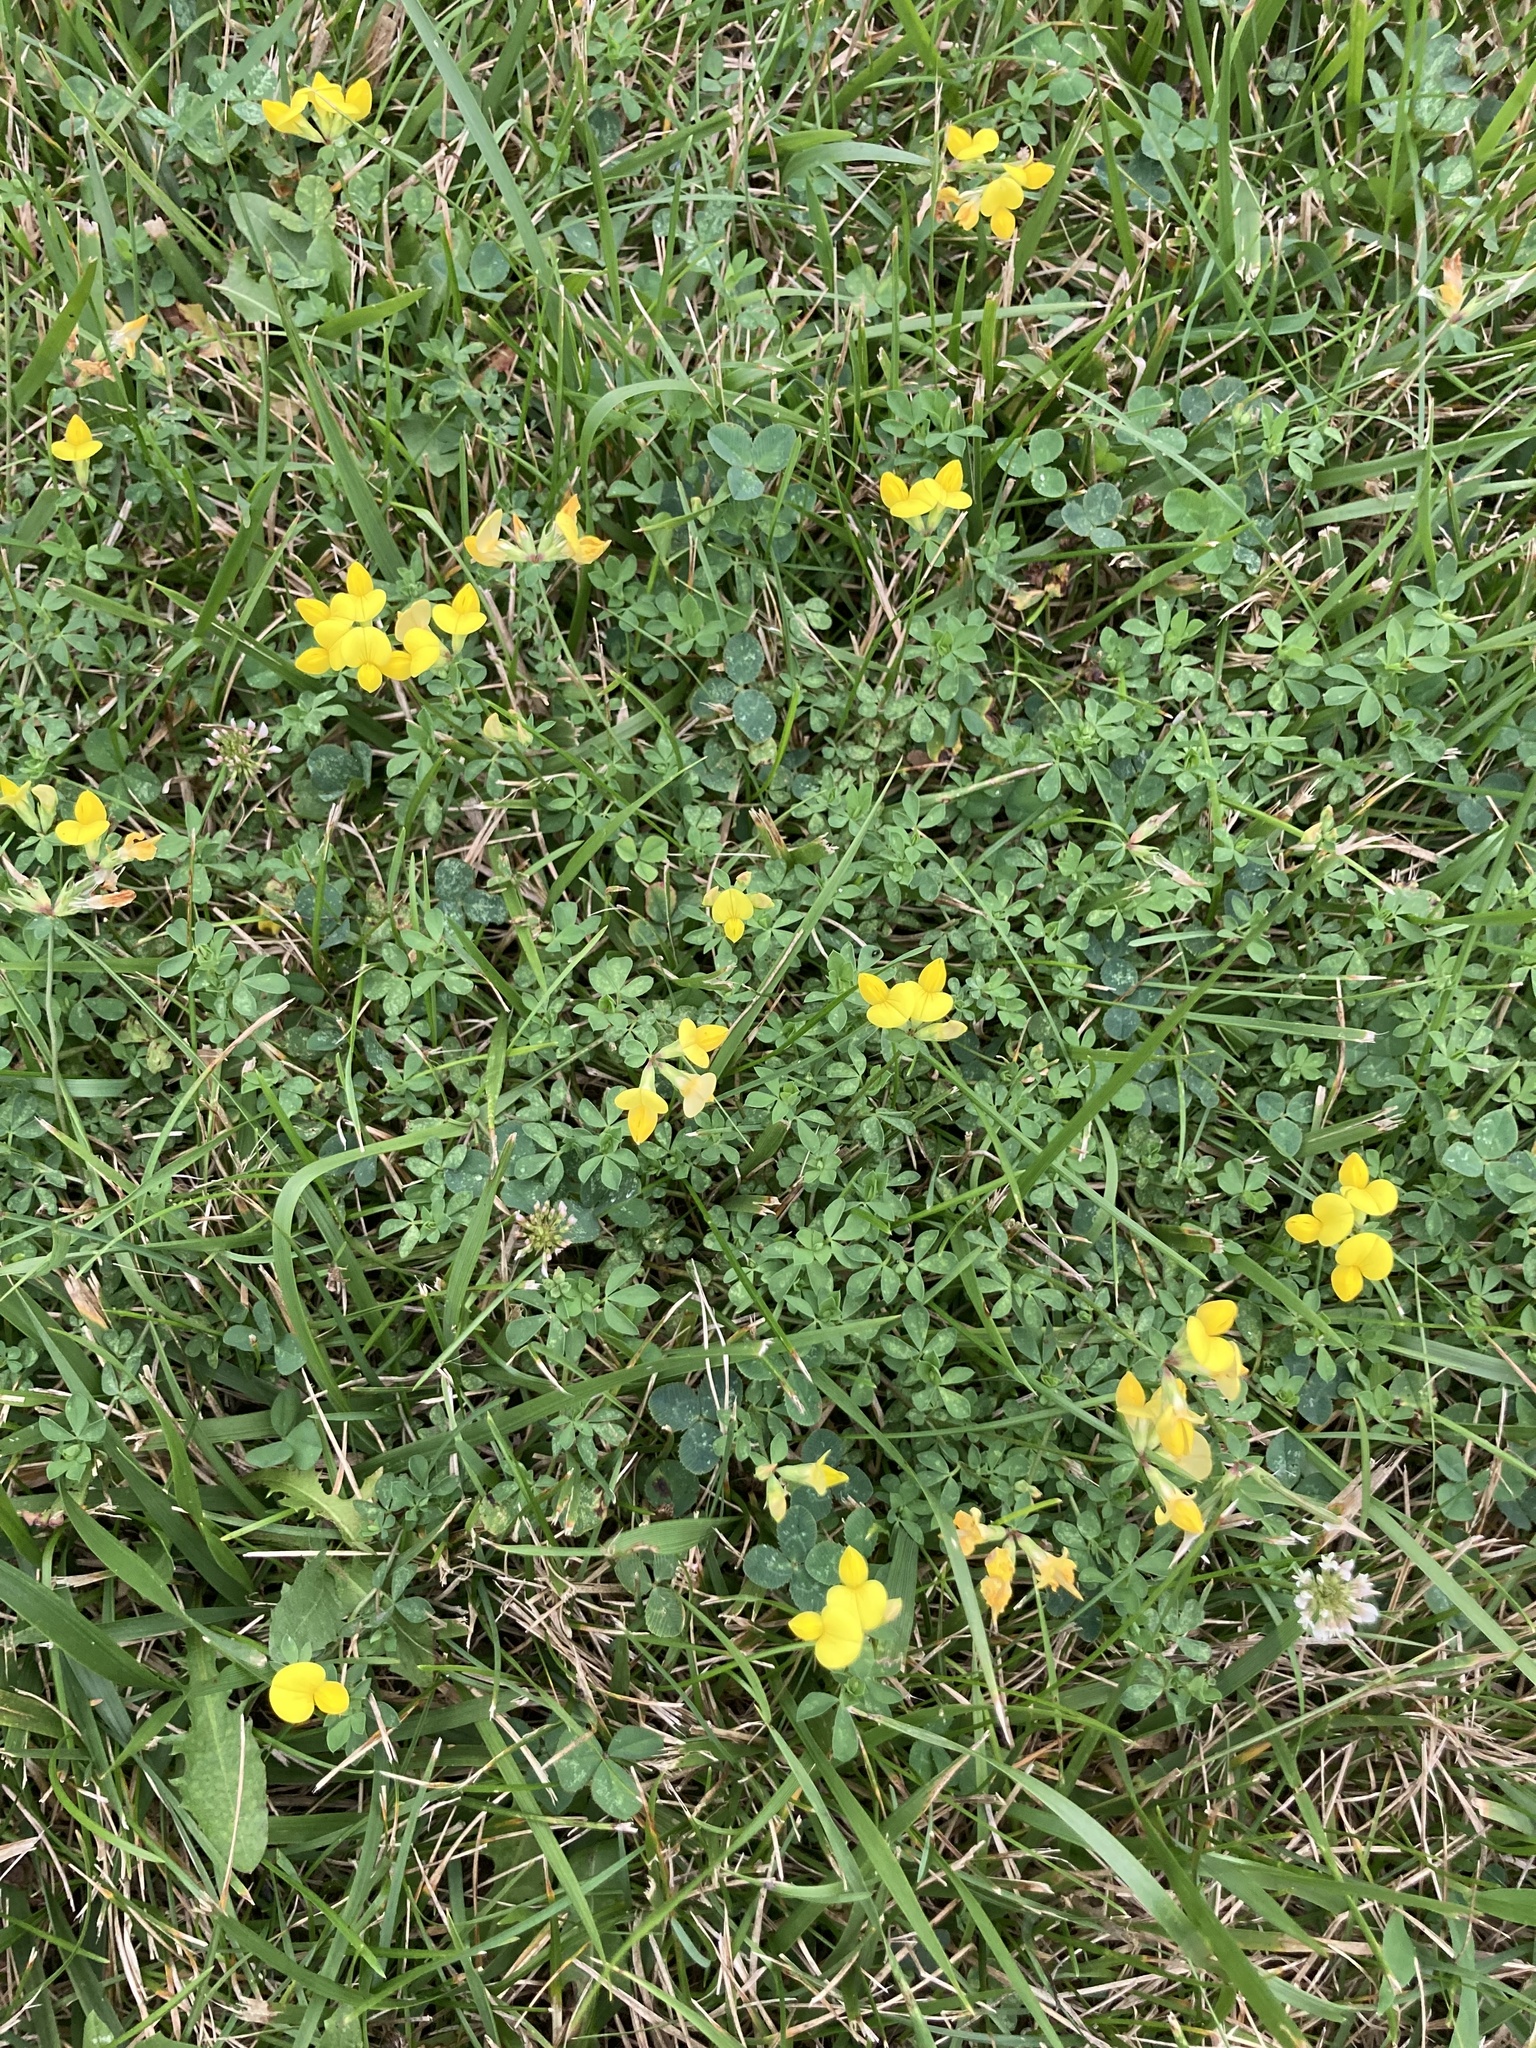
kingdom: Plantae
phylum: Tracheophyta
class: Magnoliopsida
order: Fabales
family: Fabaceae
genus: Lotus
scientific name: Lotus corniculatus
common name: Common bird's-foot-trefoil
